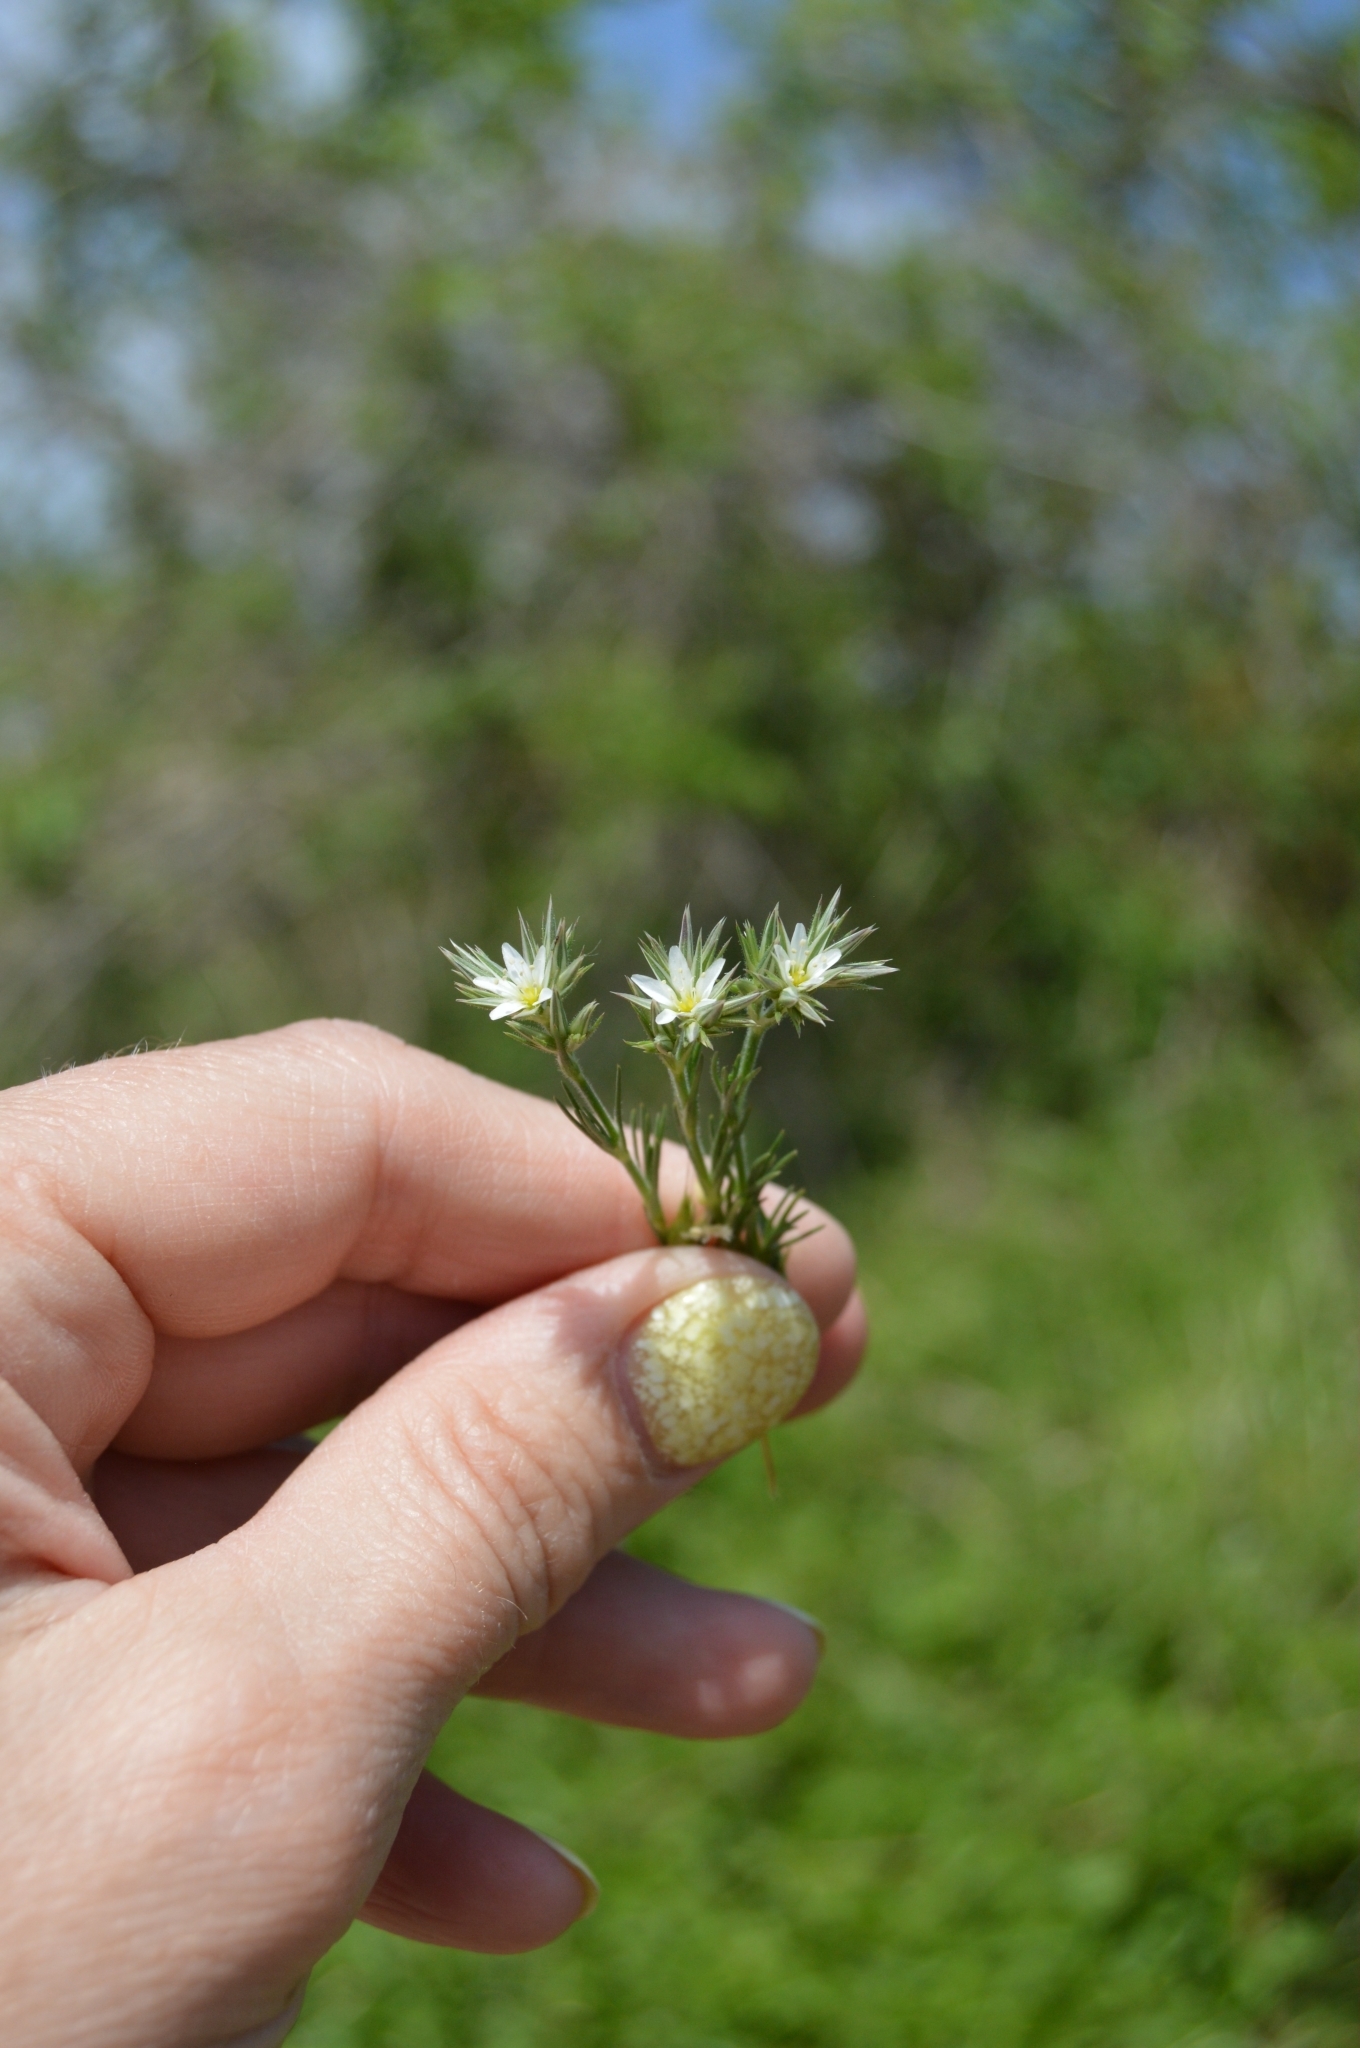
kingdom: Plantae
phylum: Tracheophyta
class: Magnoliopsida
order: Caryophyllales
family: Caryophyllaceae
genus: Minuartia
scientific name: Minuartia glomerata
